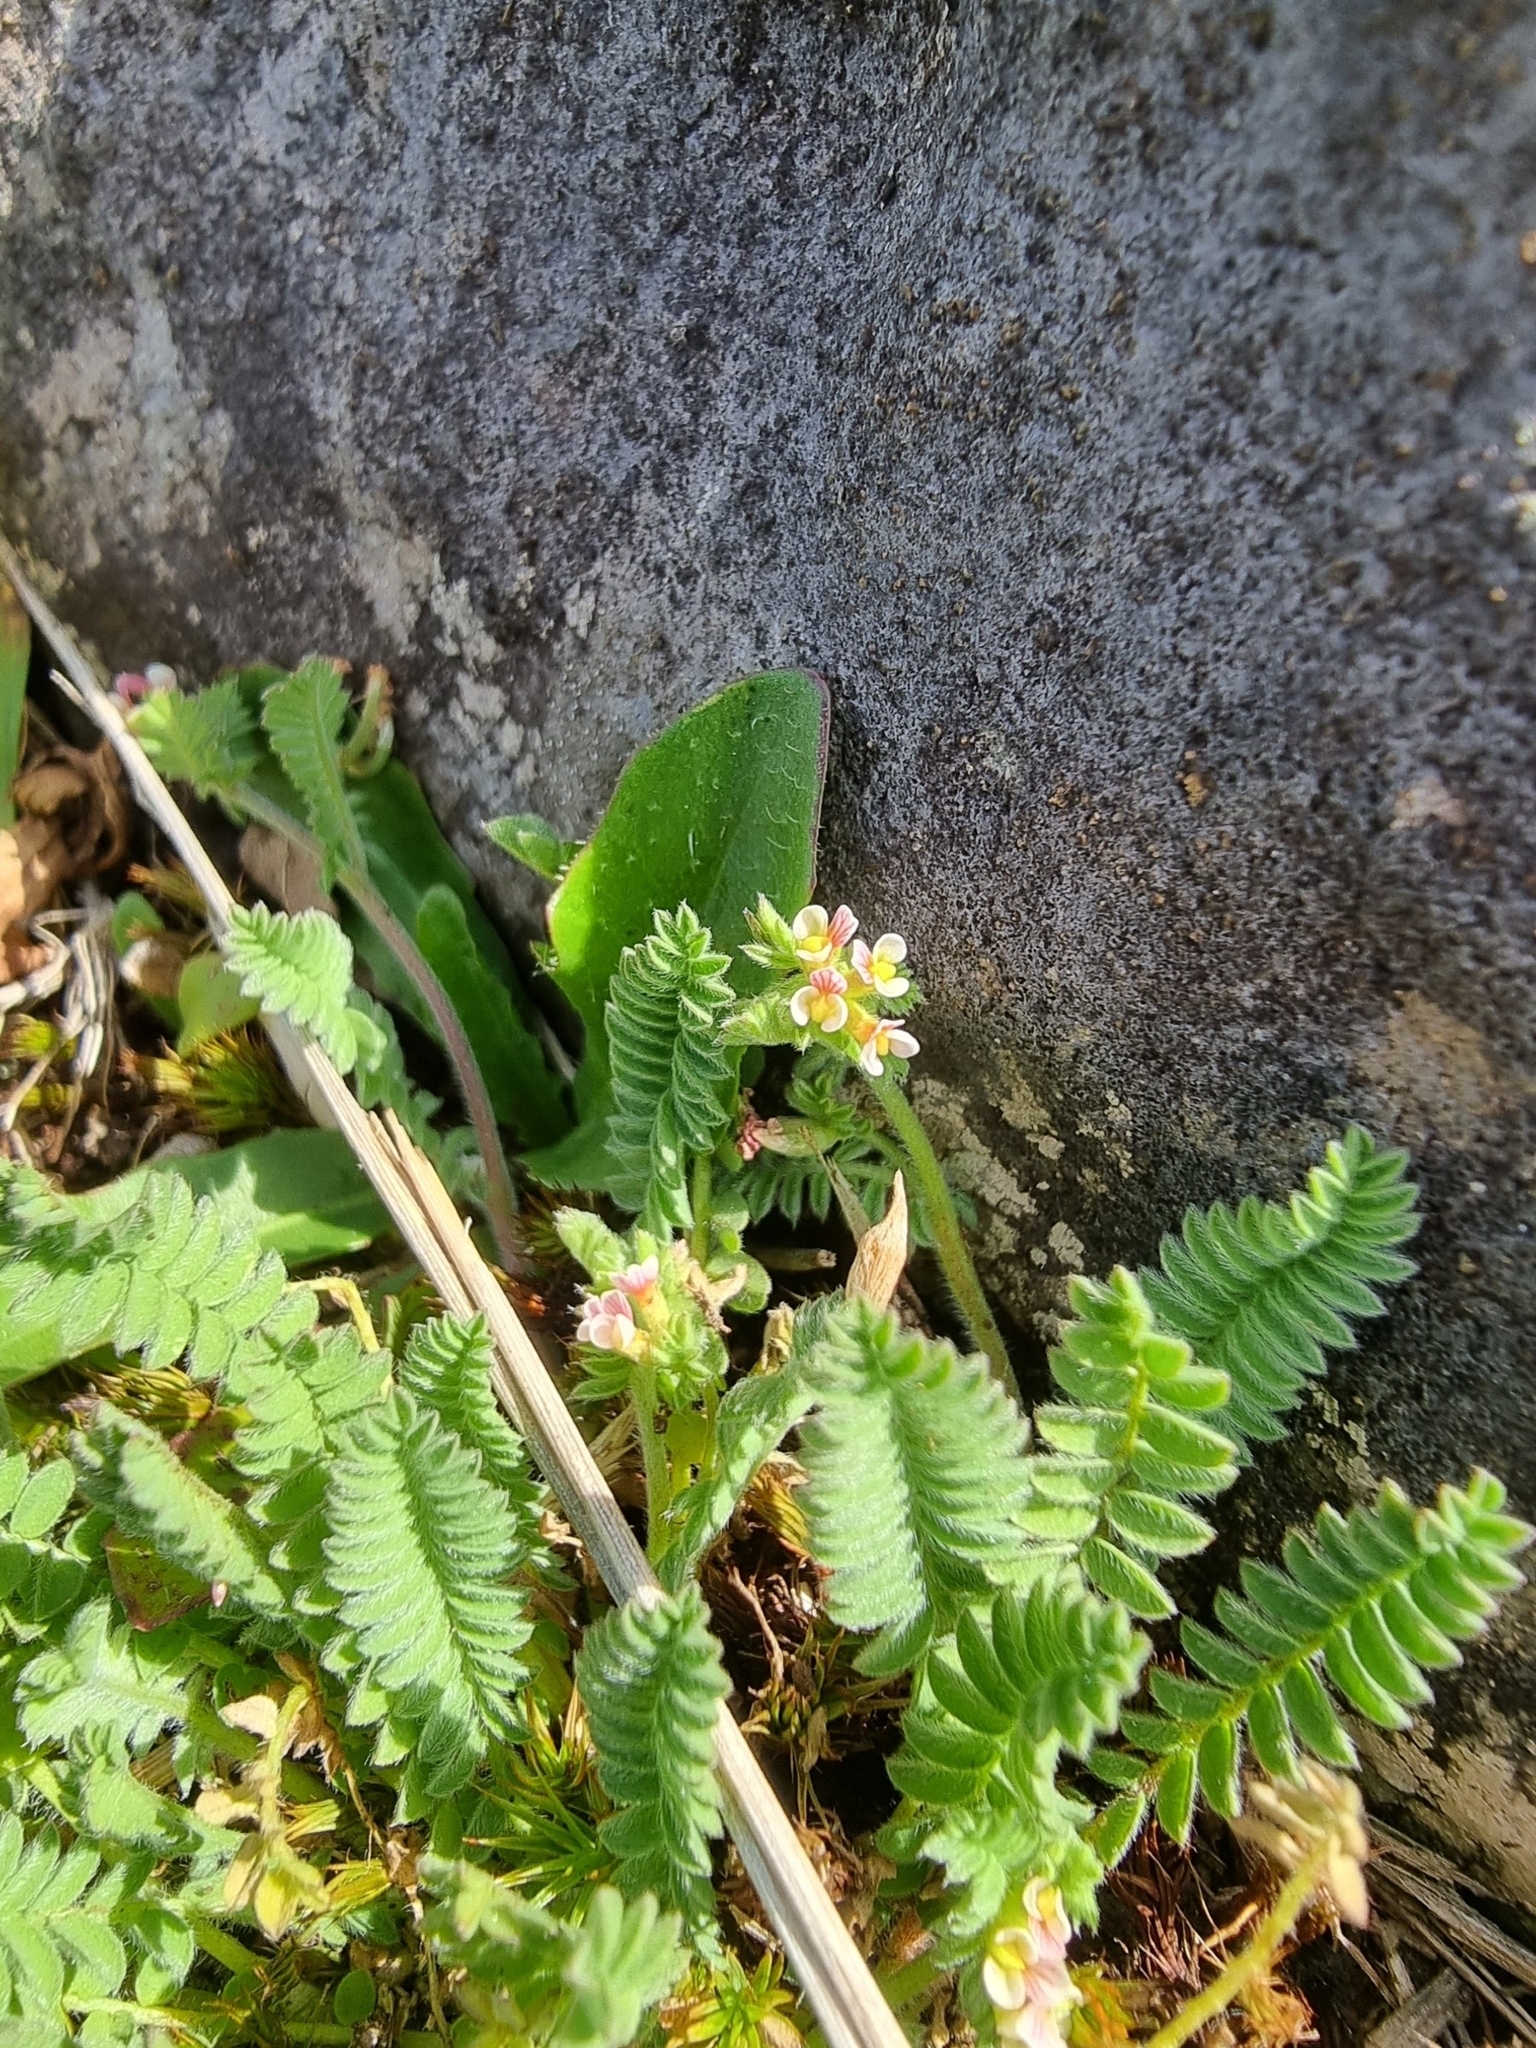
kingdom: Plantae
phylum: Tracheophyta
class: Magnoliopsida
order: Fabales
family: Fabaceae
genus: Ornithopus
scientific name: Ornithopus perpusillus
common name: Bird's-foot
